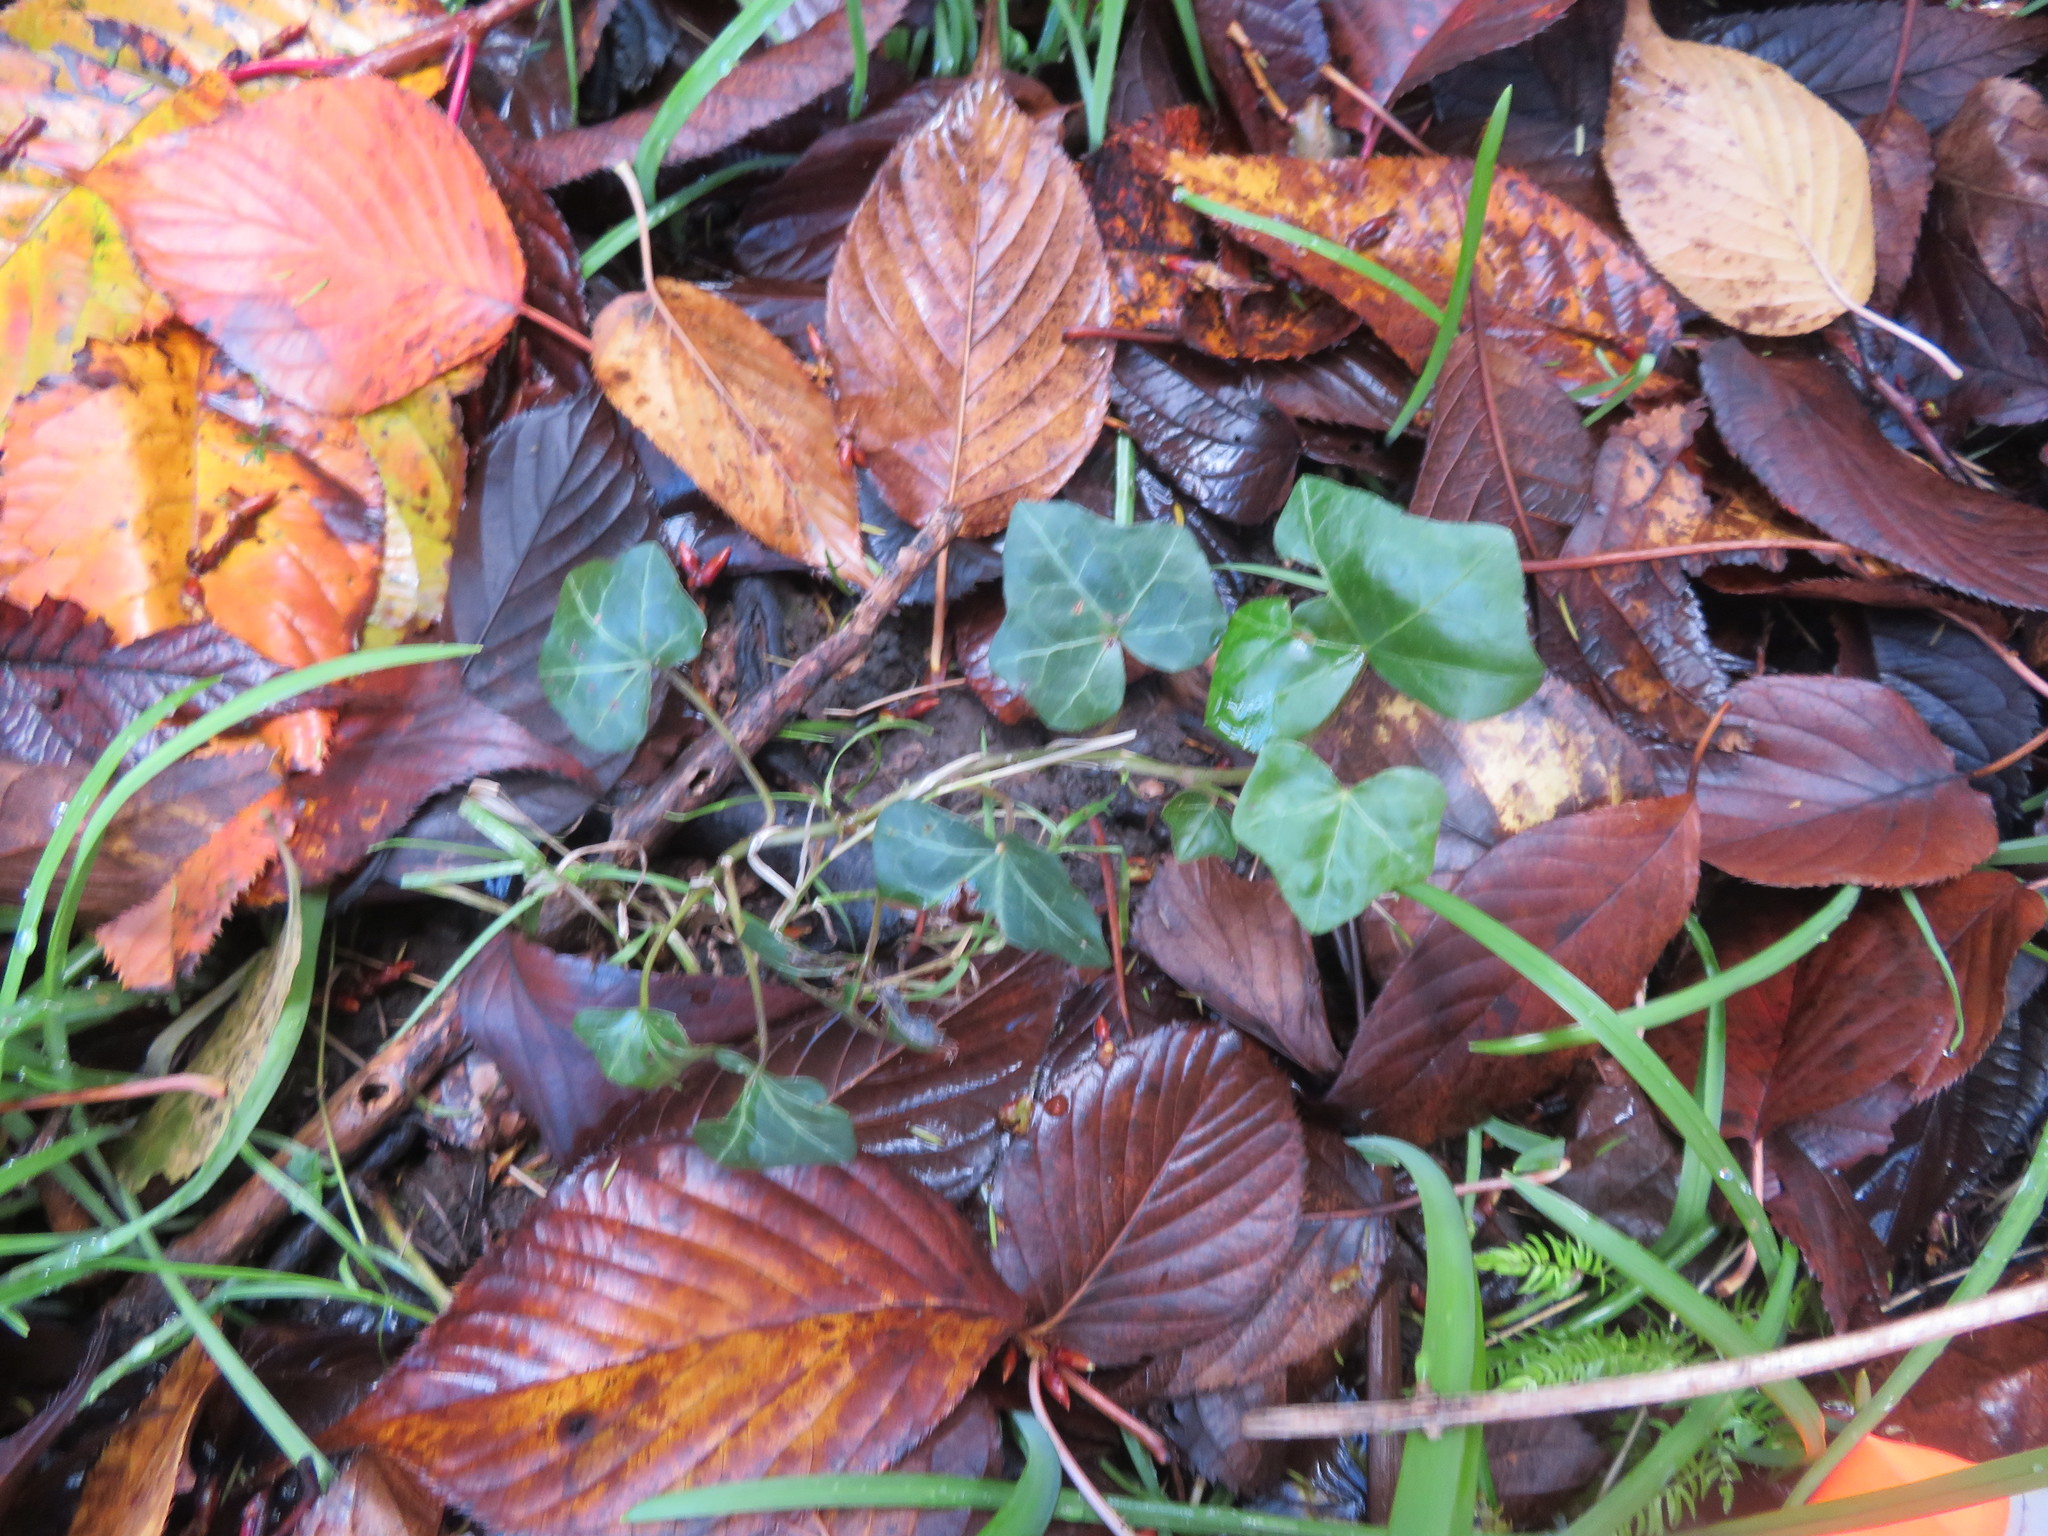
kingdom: Plantae
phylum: Tracheophyta
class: Magnoliopsida
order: Apiales
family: Araliaceae
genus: Hedera
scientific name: Hedera helix
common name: Ivy
